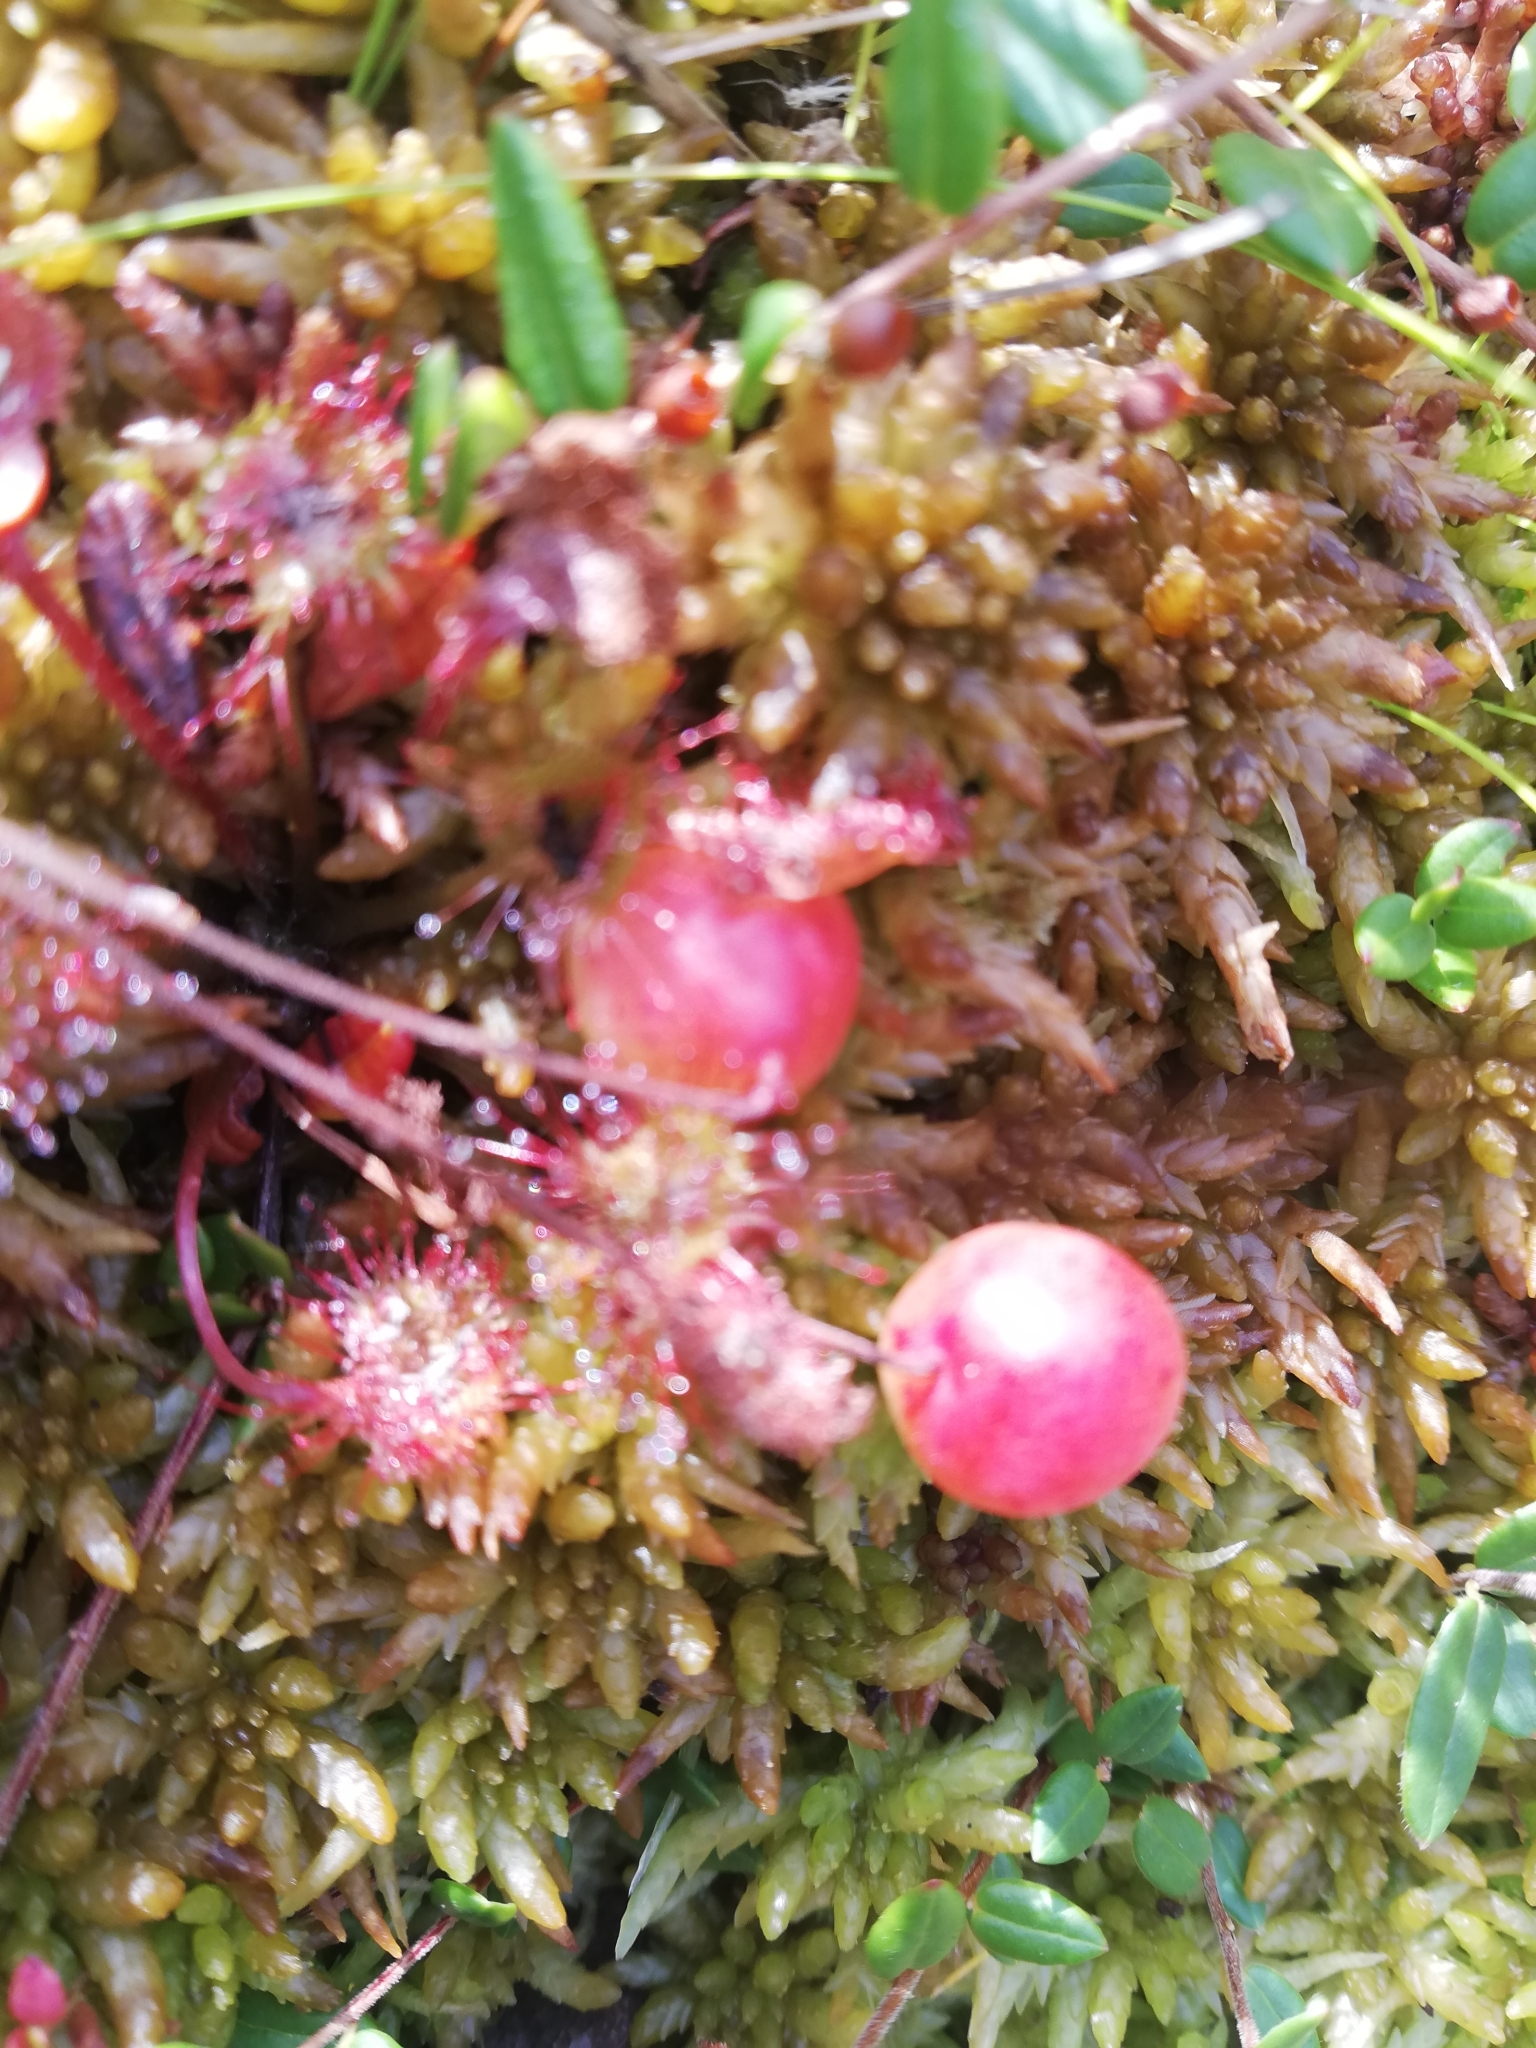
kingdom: Plantae
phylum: Tracheophyta
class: Magnoliopsida
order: Ericales
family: Ericaceae
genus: Vaccinium
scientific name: Vaccinium oxycoccos
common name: Cranberry
